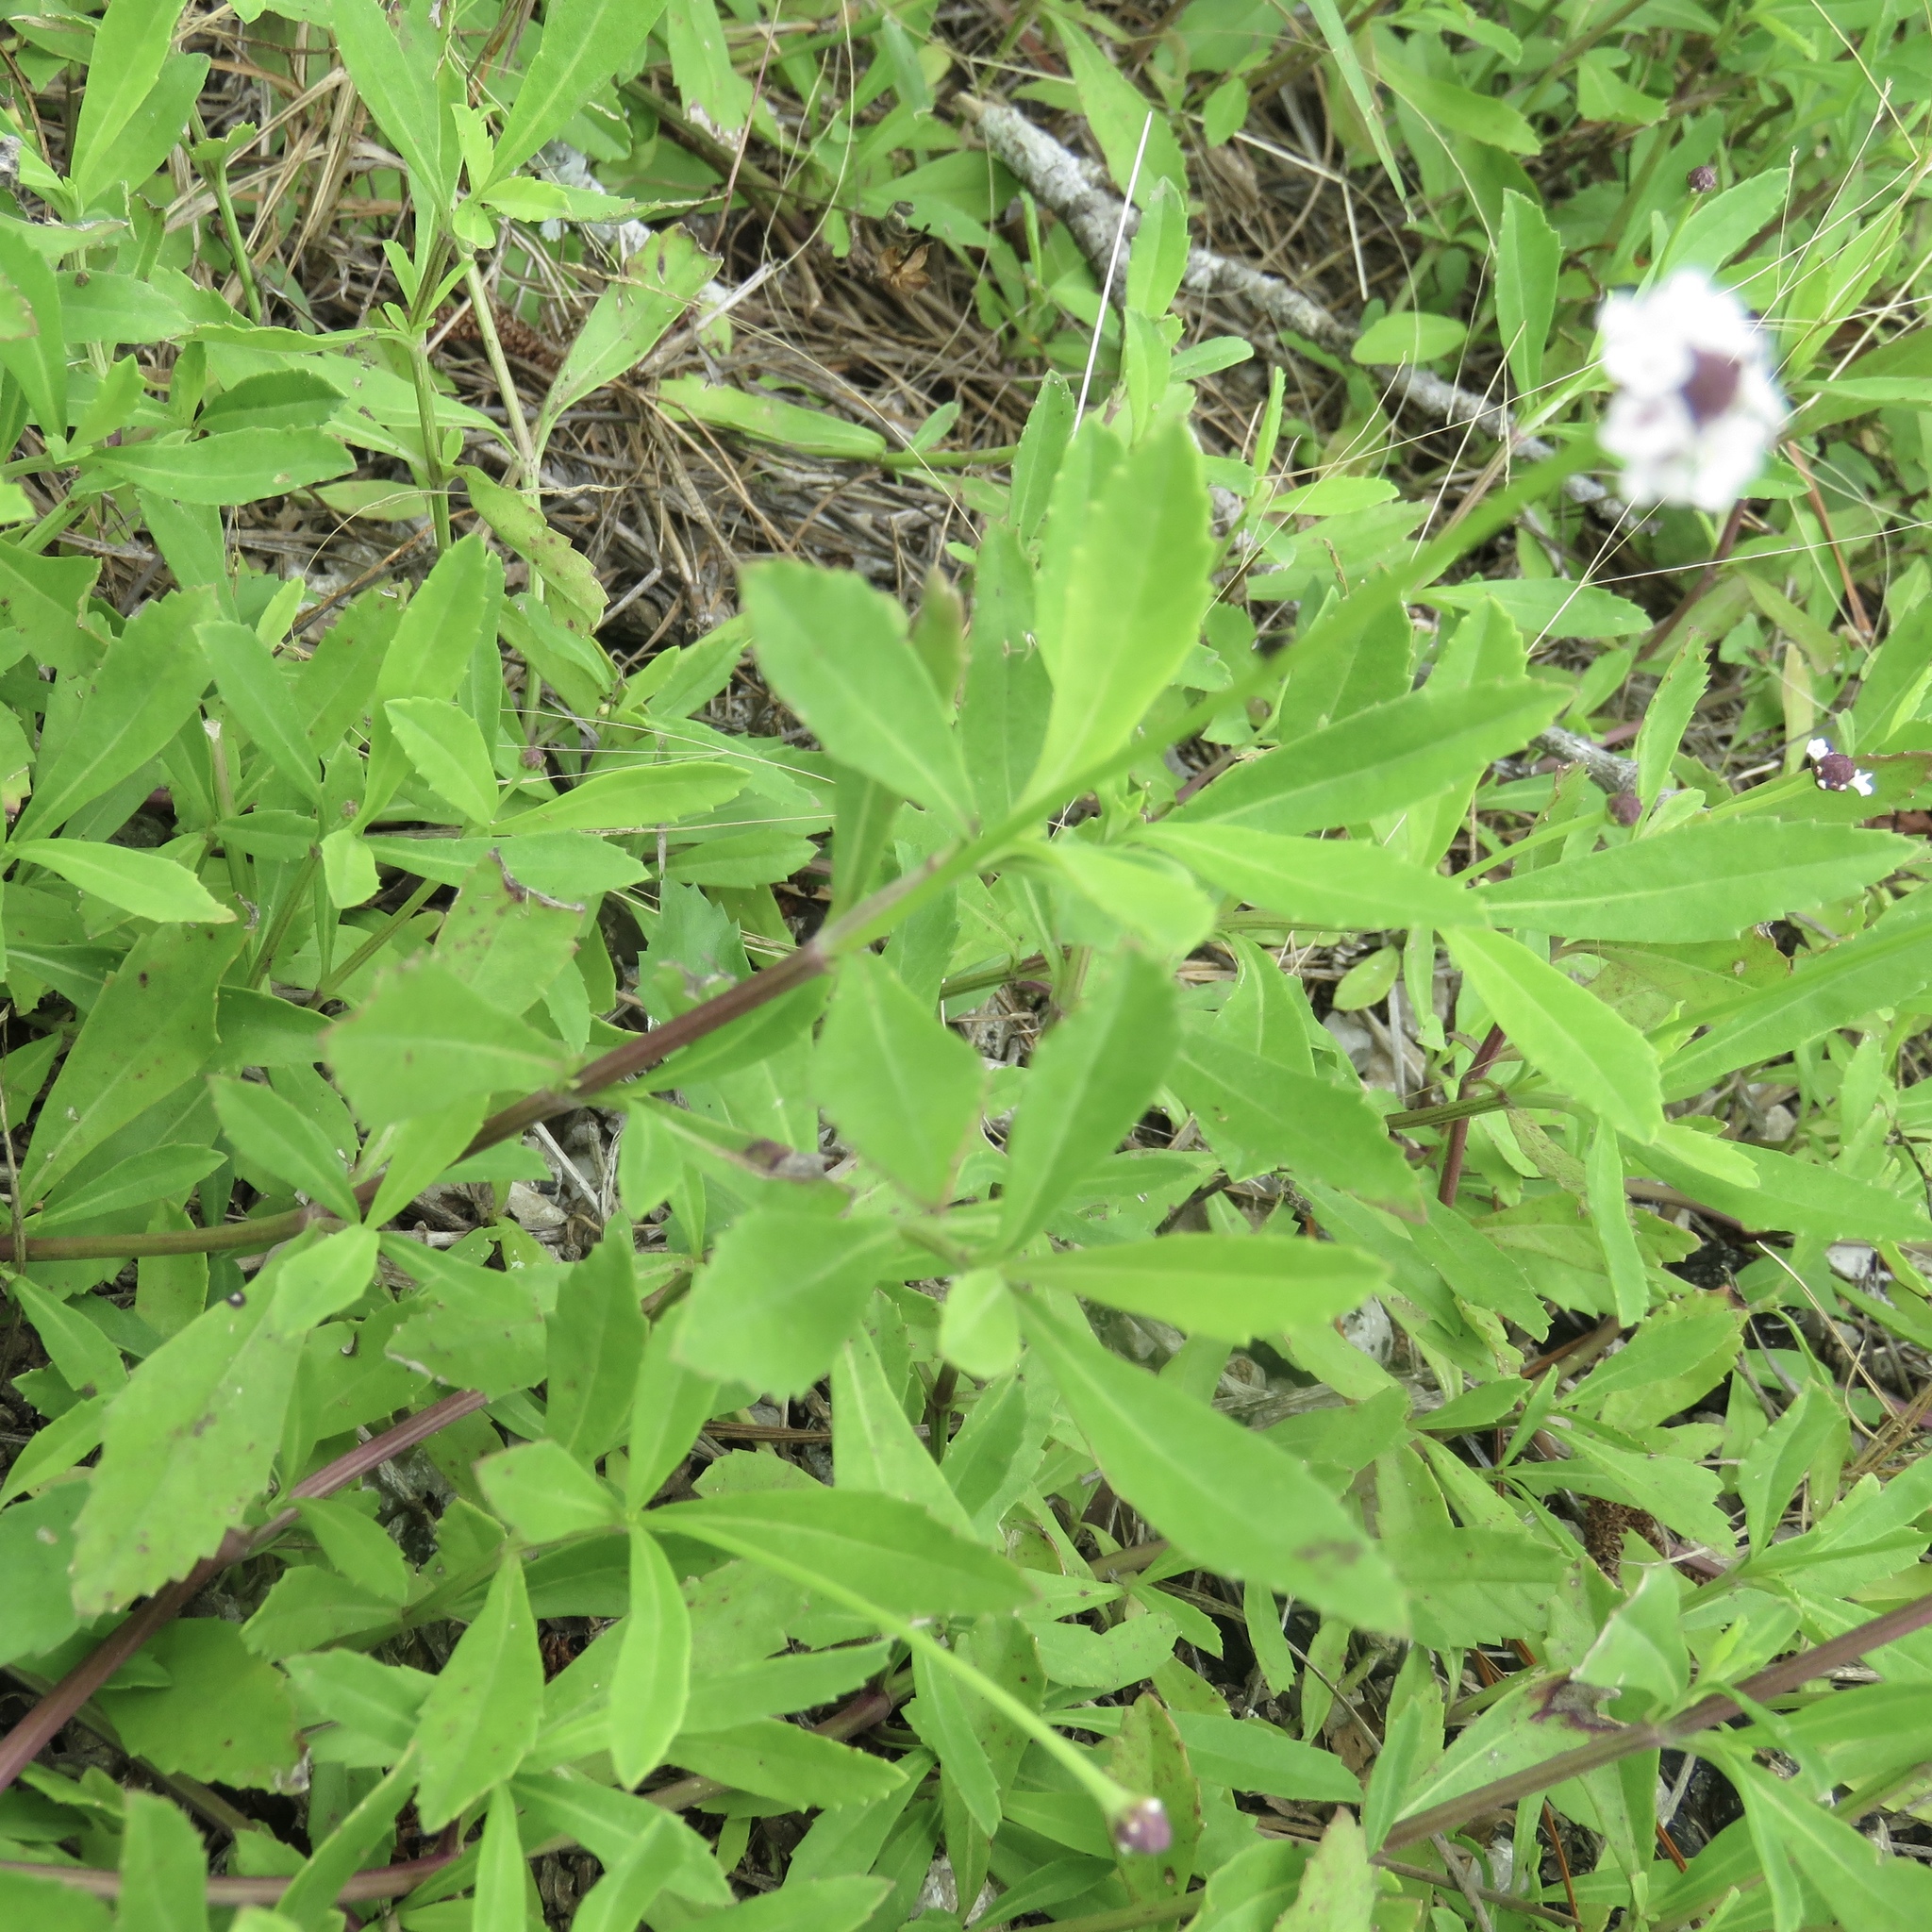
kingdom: Plantae
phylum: Tracheophyta
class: Magnoliopsida
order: Lamiales
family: Verbenaceae
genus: Phyla
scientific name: Phyla nodiflora
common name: Frogfruit
